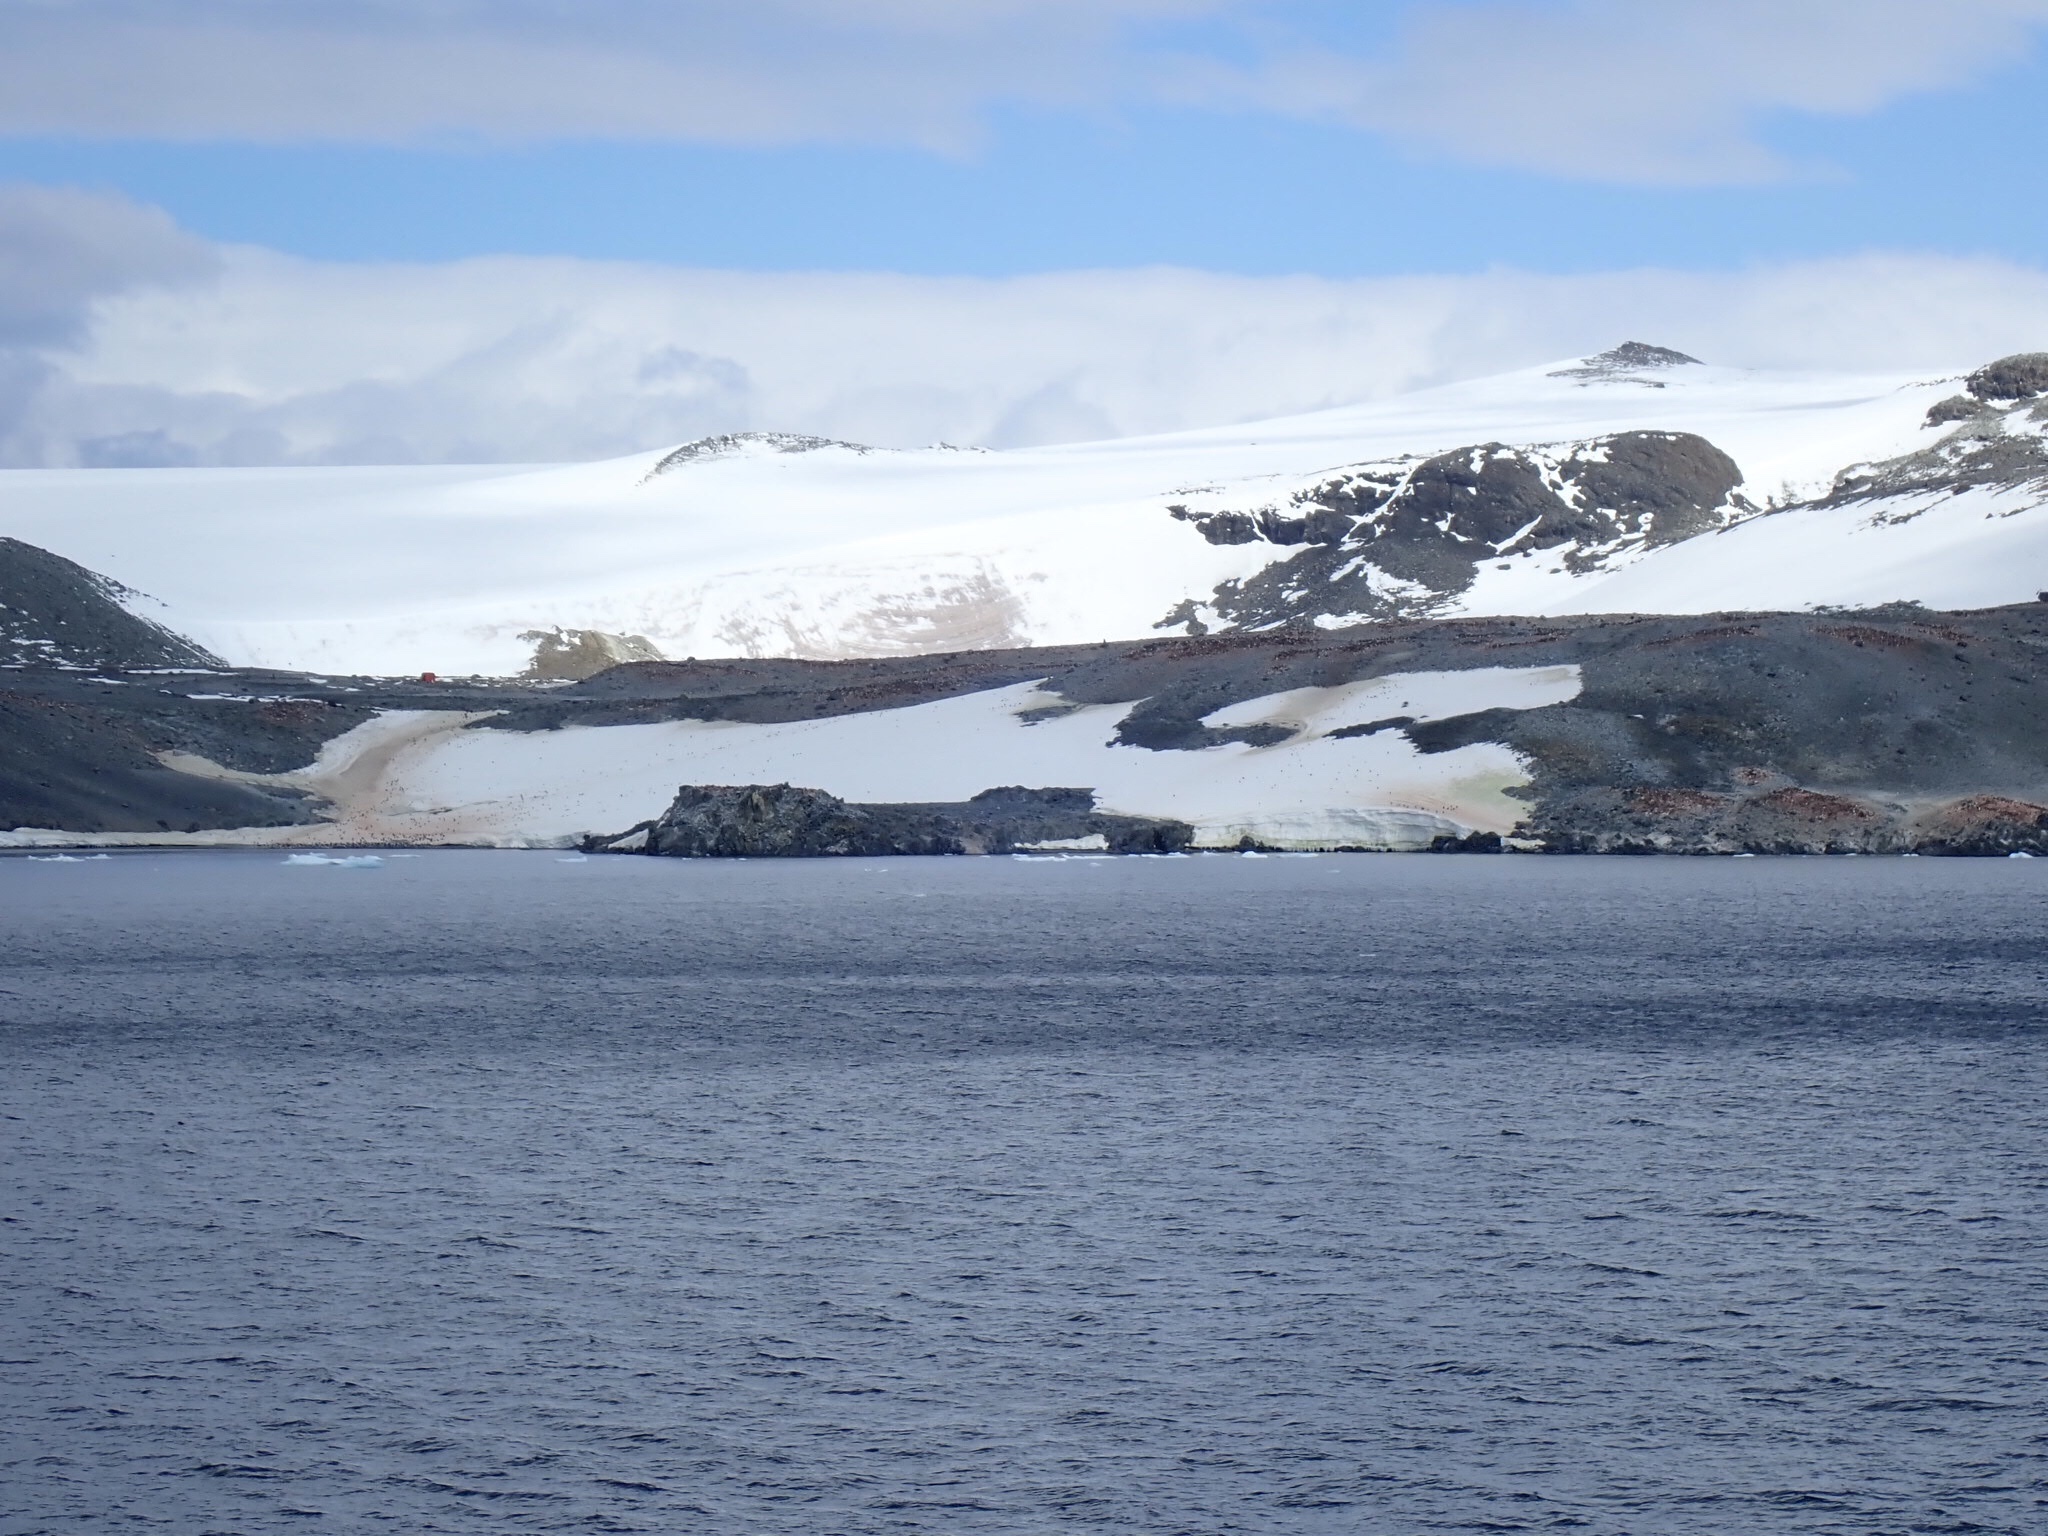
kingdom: Animalia
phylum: Chordata
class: Aves
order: Sphenisciformes
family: Spheniscidae
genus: Pygoscelis
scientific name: Pygoscelis adeliae
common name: Adelie penguin
